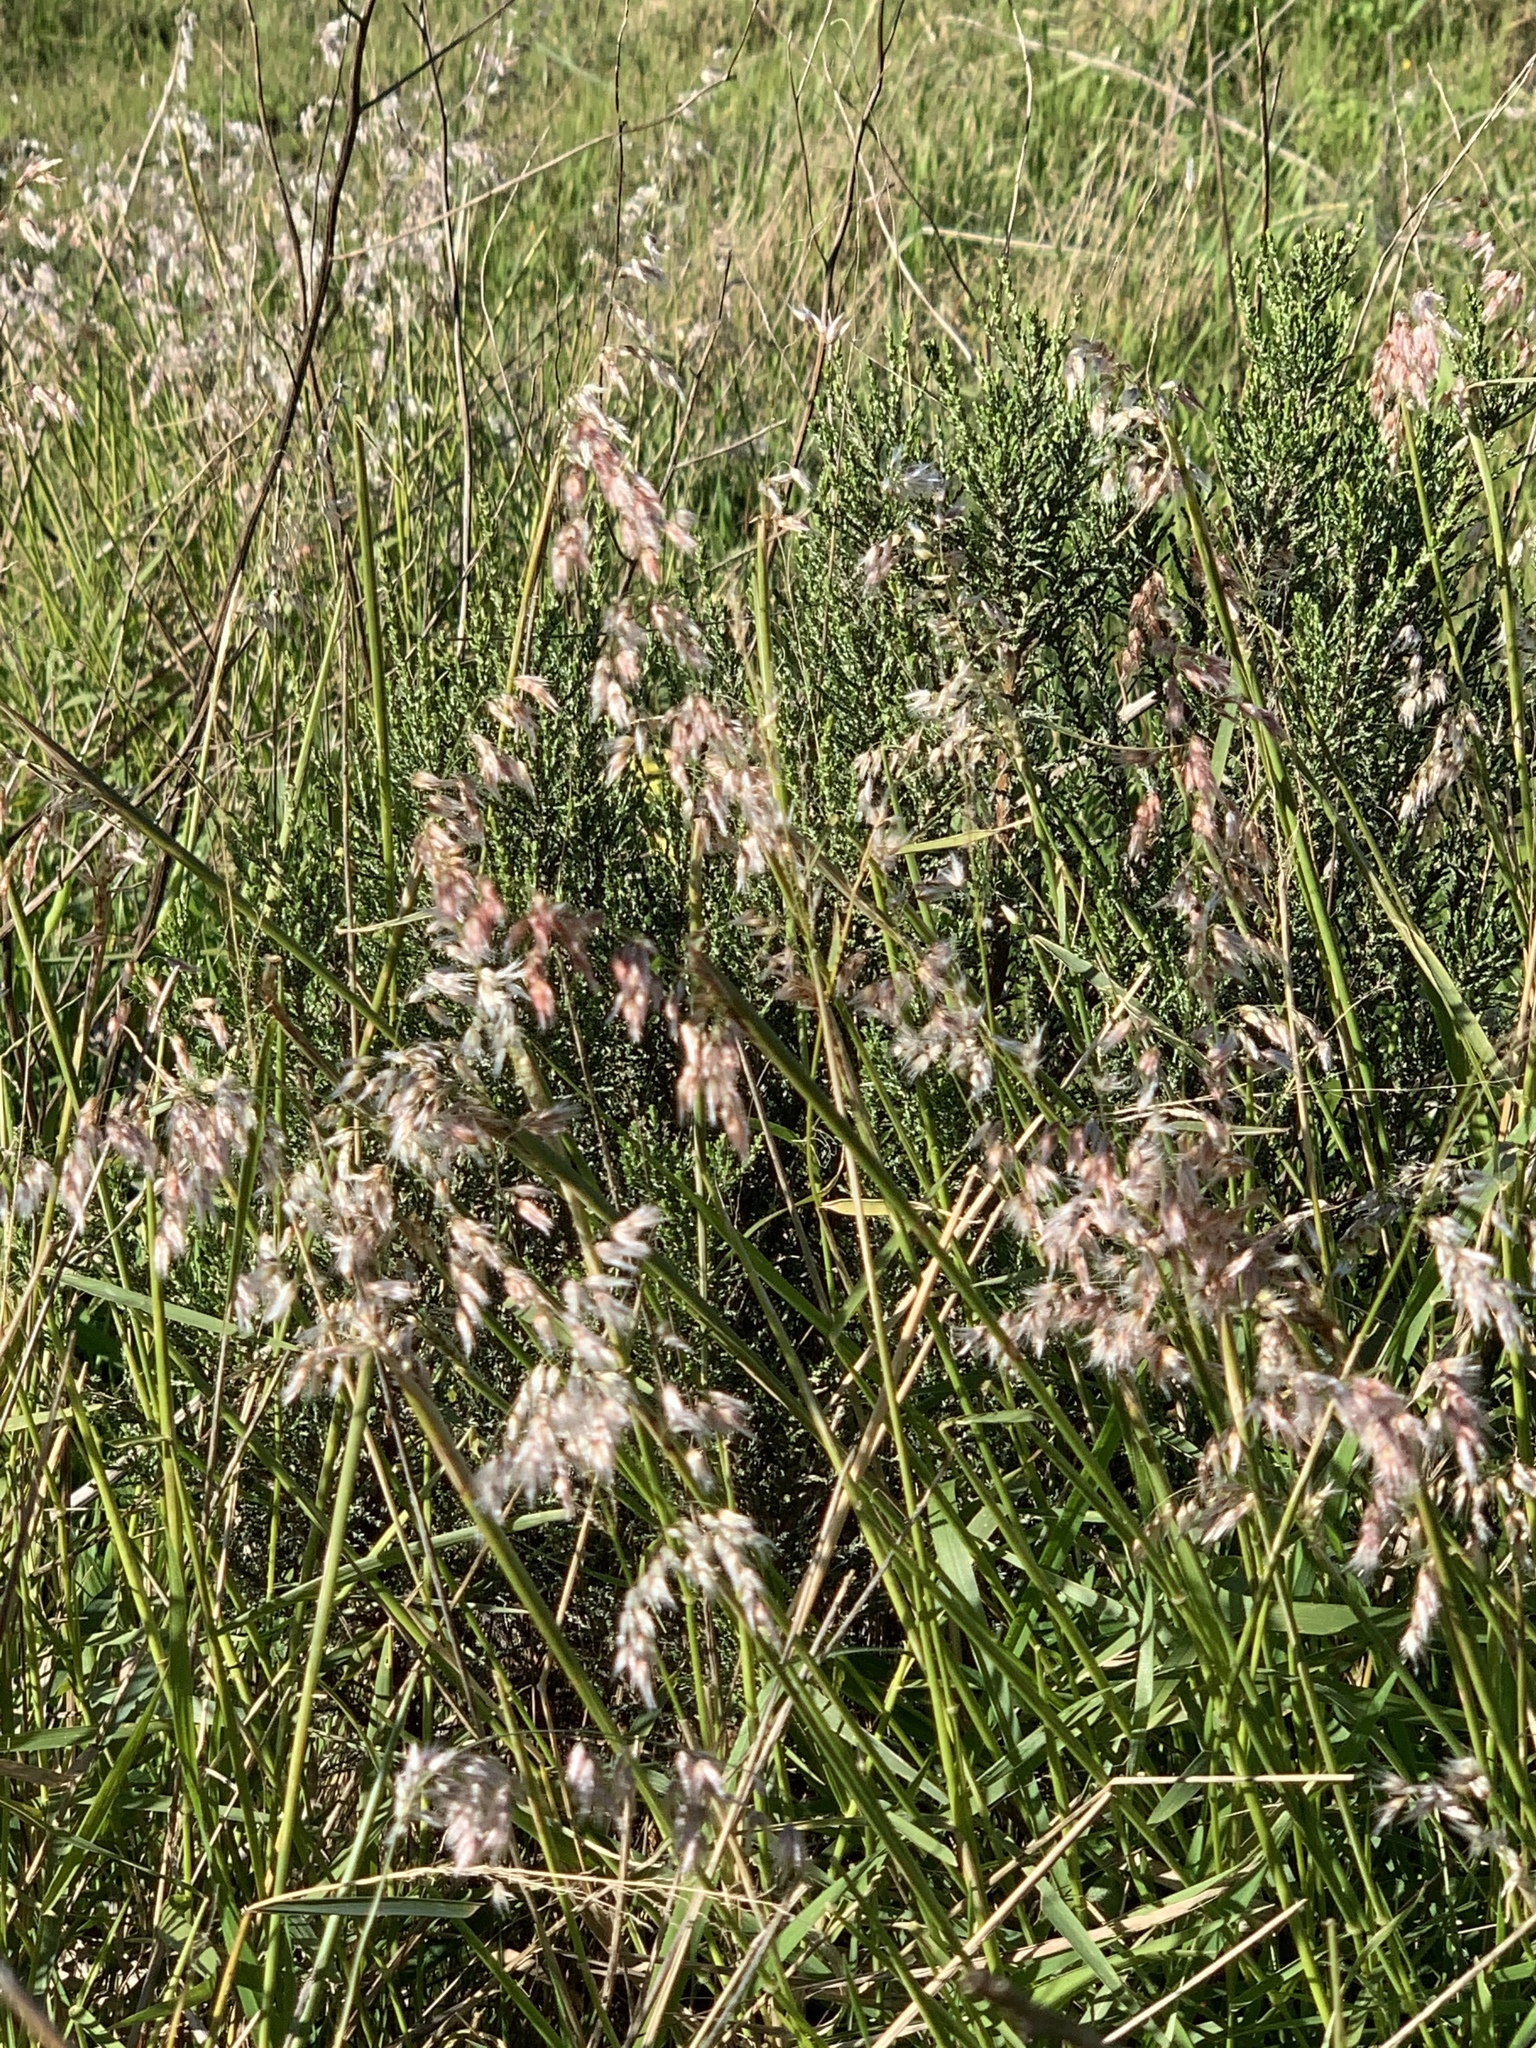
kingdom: Plantae
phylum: Tracheophyta
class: Liliopsida
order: Poales
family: Poaceae
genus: Melinis
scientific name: Melinis repens
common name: Rose natal grass
